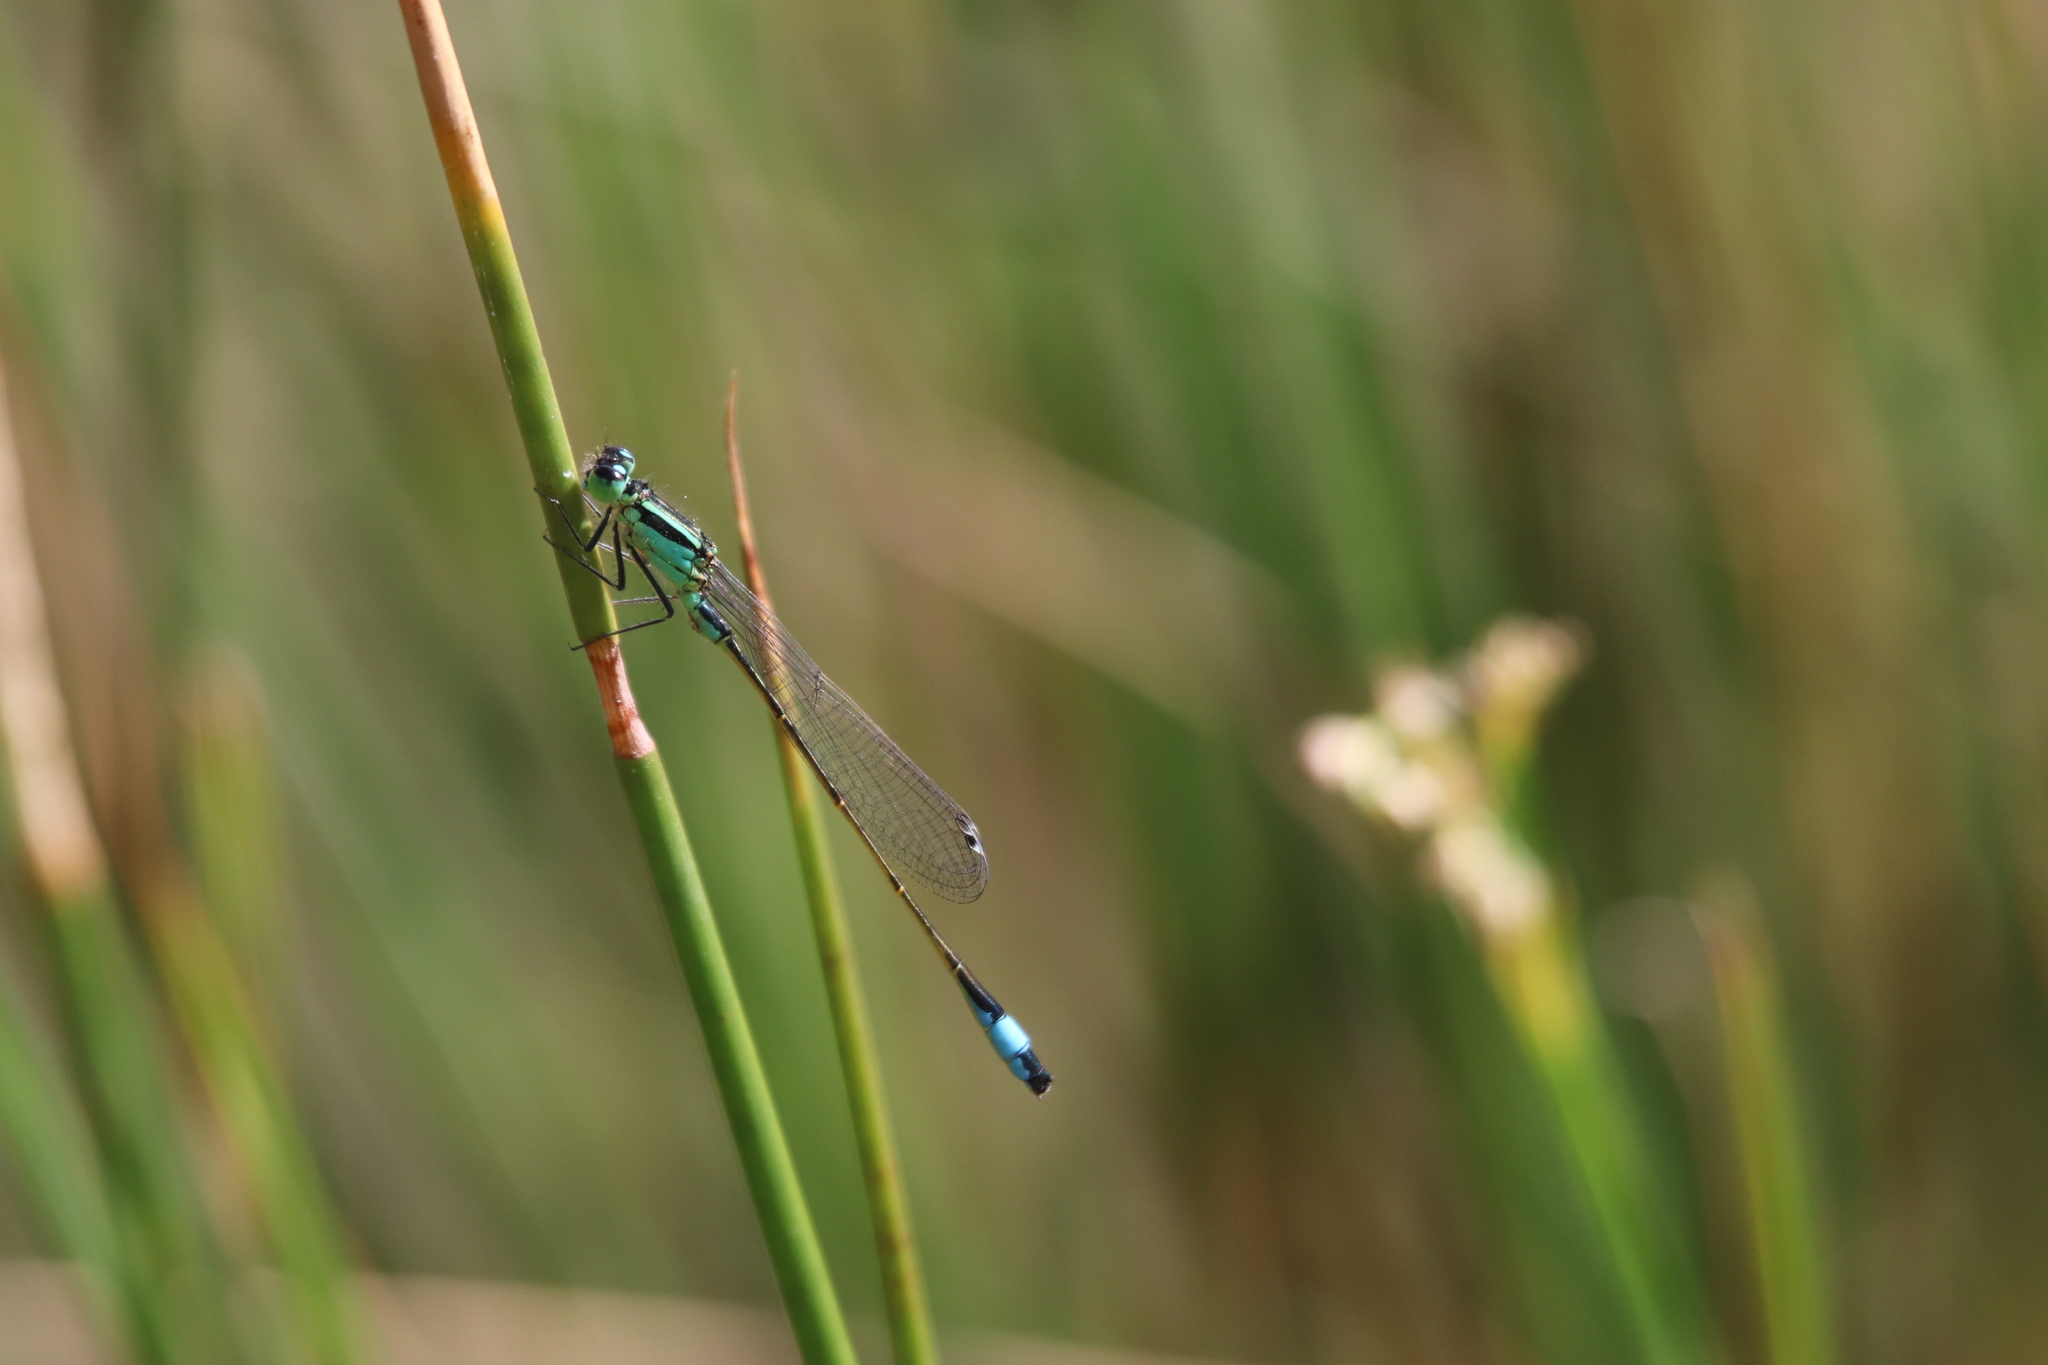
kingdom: Animalia
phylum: Arthropoda
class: Insecta
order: Odonata
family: Coenagrionidae
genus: Ischnura
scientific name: Ischnura elegans
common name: Blue-tailed damselfly
